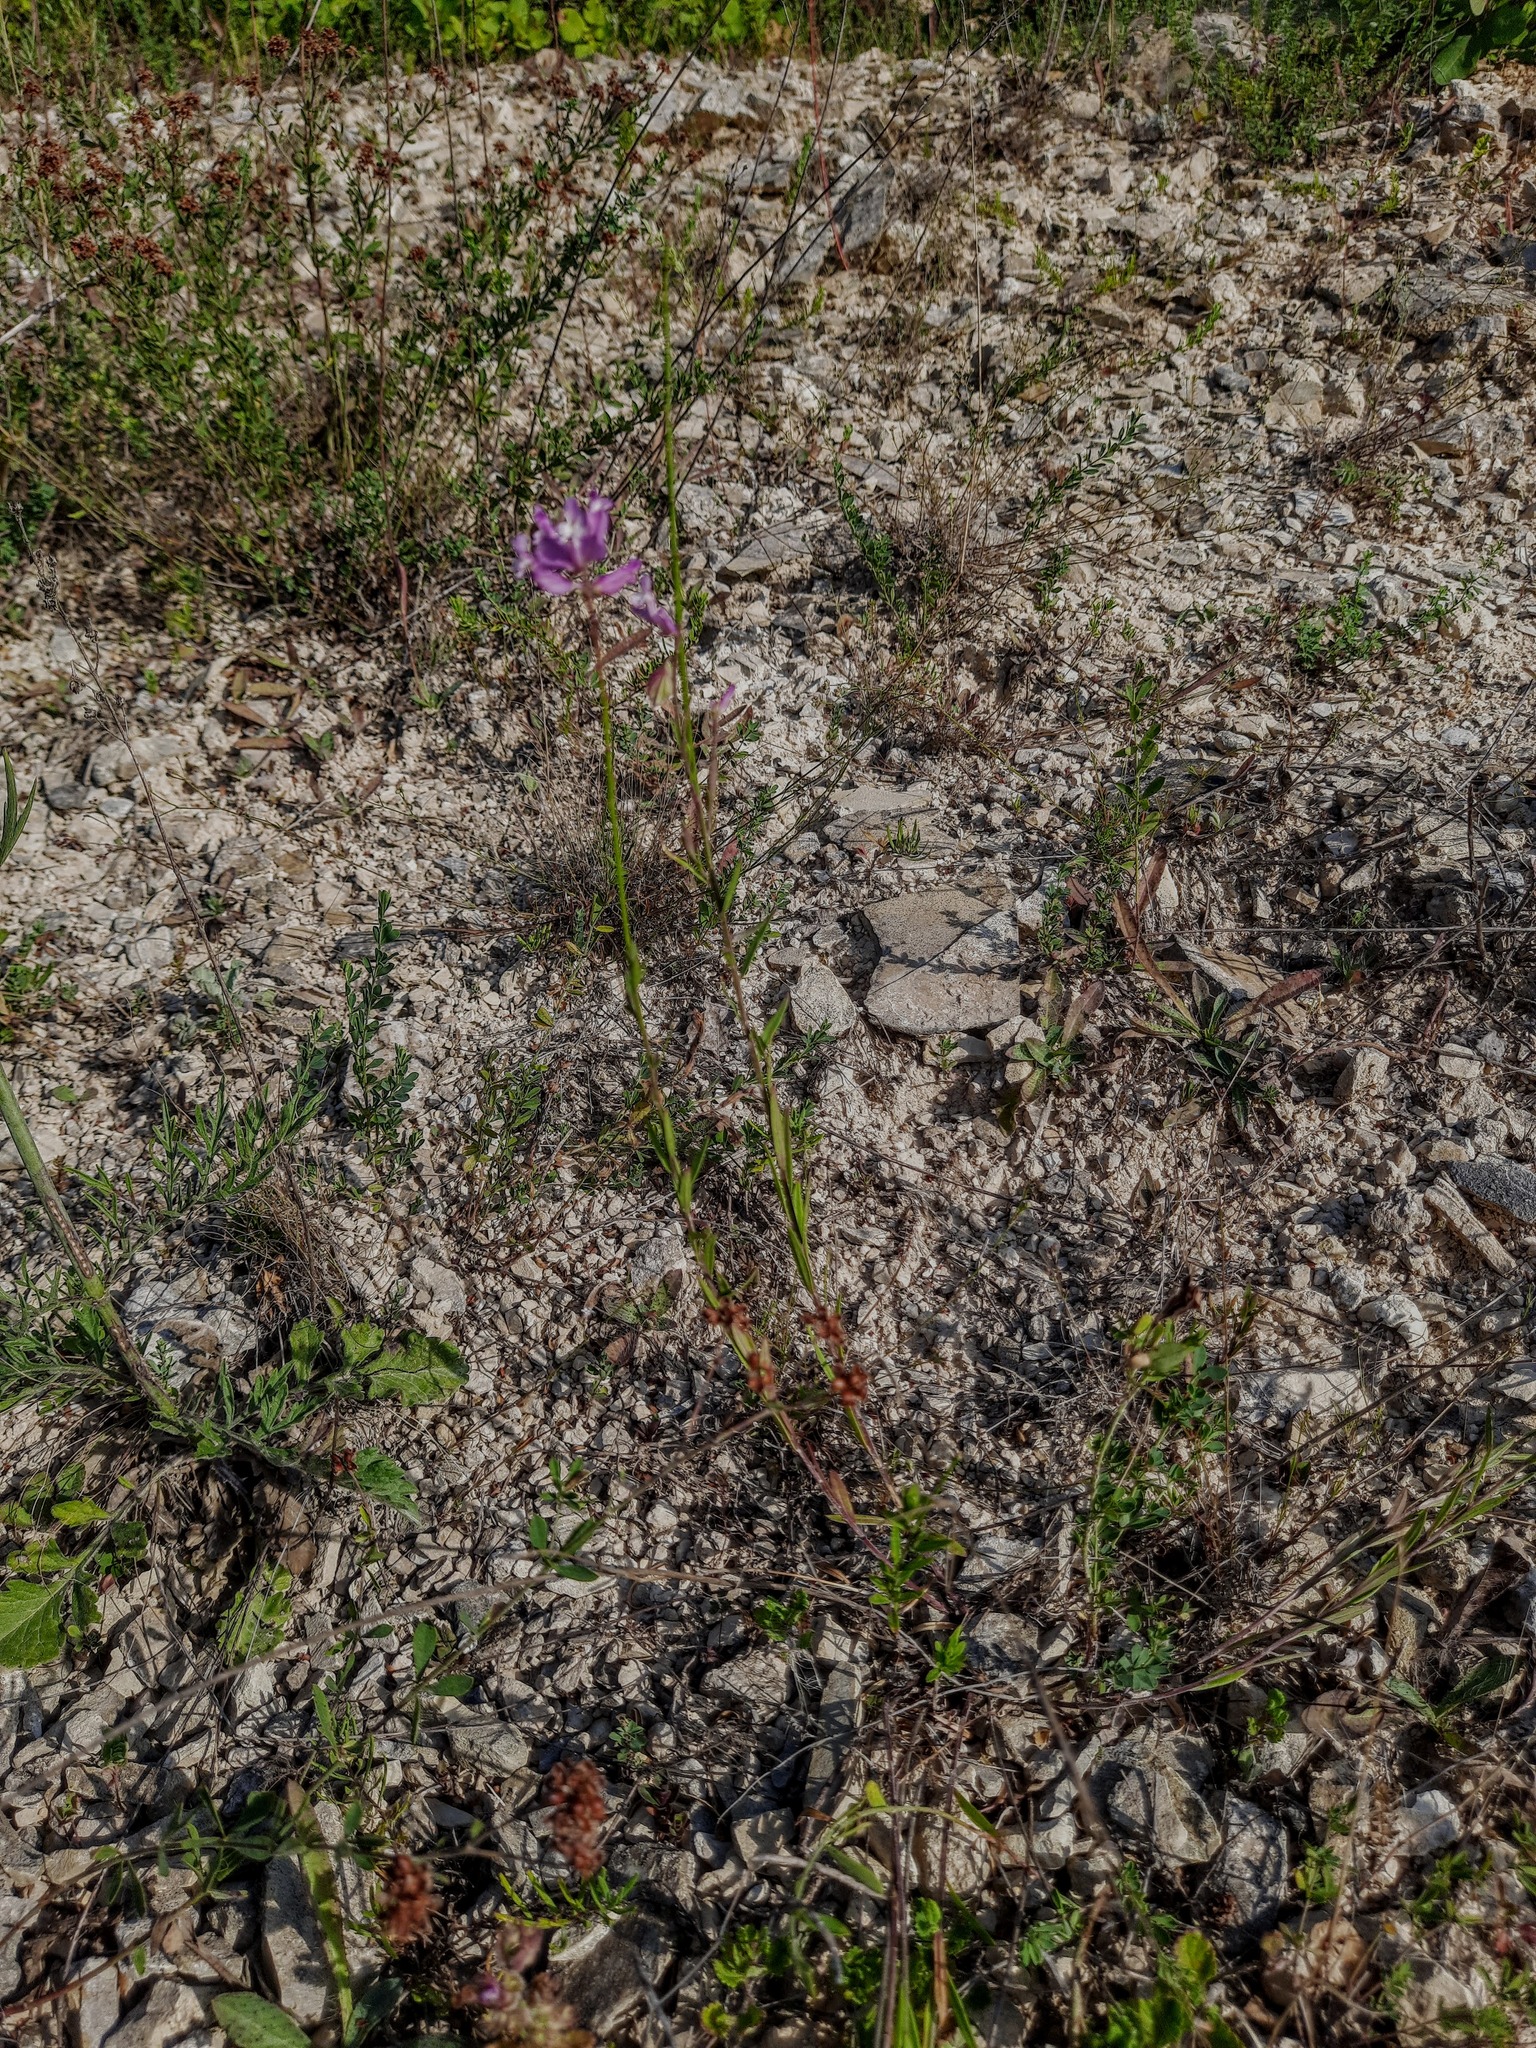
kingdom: Plantae
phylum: Tracheophyta
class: Magnoliopsida
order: Fabales
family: Polygalaceae
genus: Polygala
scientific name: Polygala major
